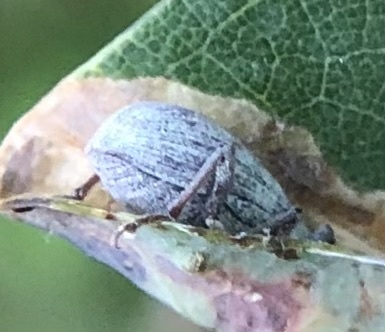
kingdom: Animalia
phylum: Arthropoda
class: Insecta
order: Coleoptera
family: Curculionidae
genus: Cyrtepistomus
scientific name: Cyrtepistomus castaneus
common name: Weevil
